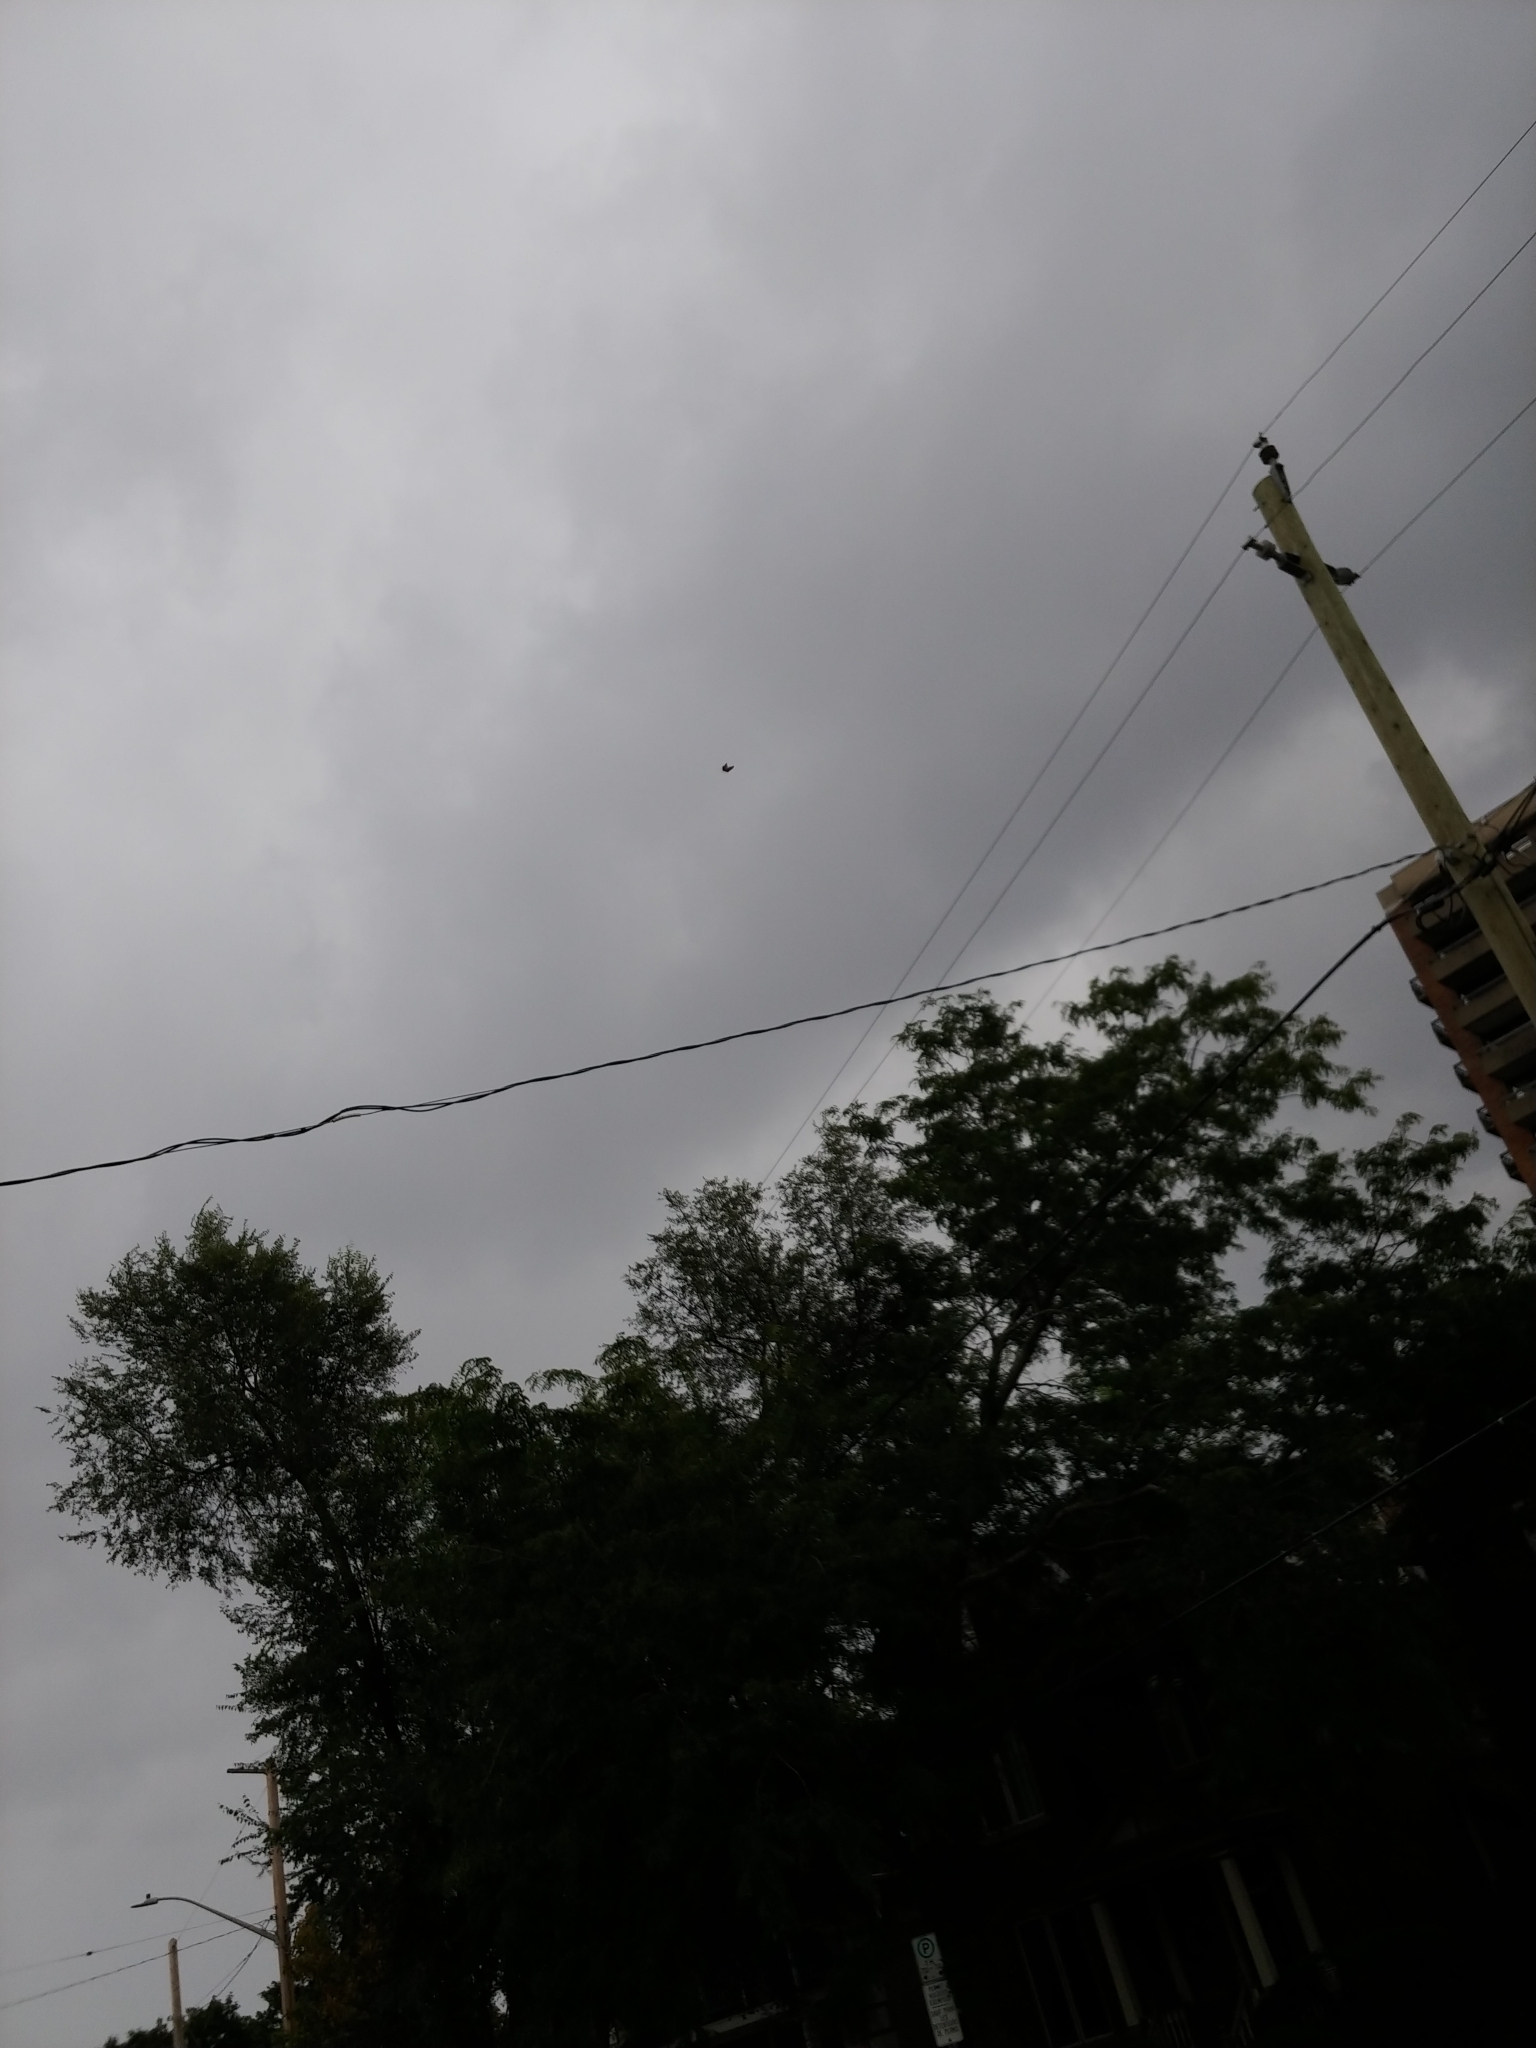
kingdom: Animalia
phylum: Arthropoda
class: Insecta
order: Lepidoptera
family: Nymphalidae
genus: Danaus
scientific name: Danaus plexippus
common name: Monarch
